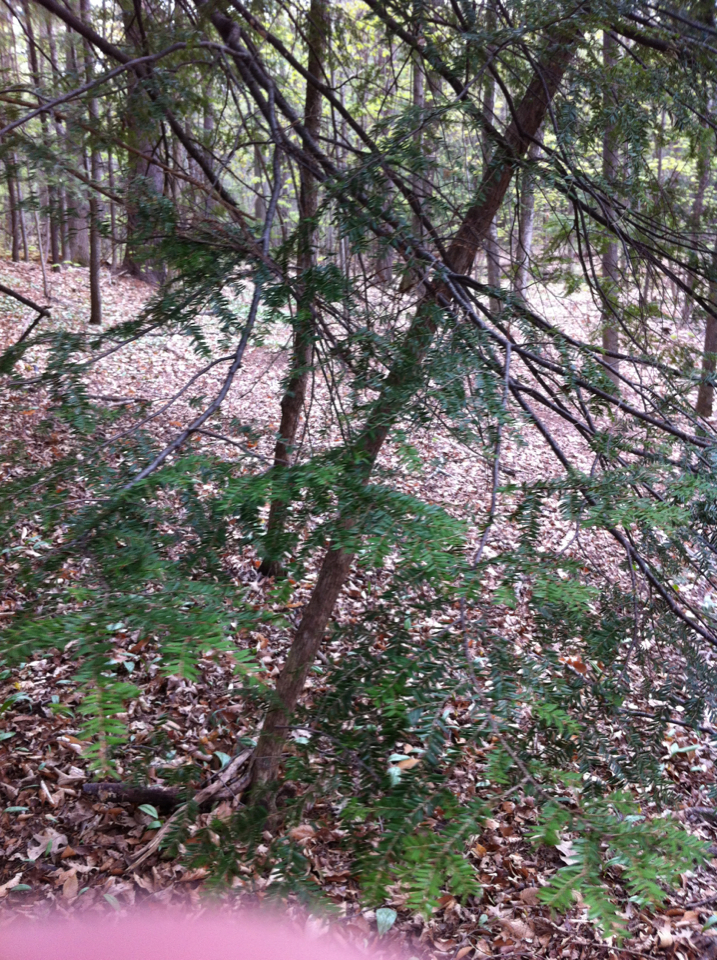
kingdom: Plantae
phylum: Tracheophyta
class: Pinopsida
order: Pinales
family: Pinaceae
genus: Tsuga
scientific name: Tsuga canadensis
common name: Eastern hemlock
